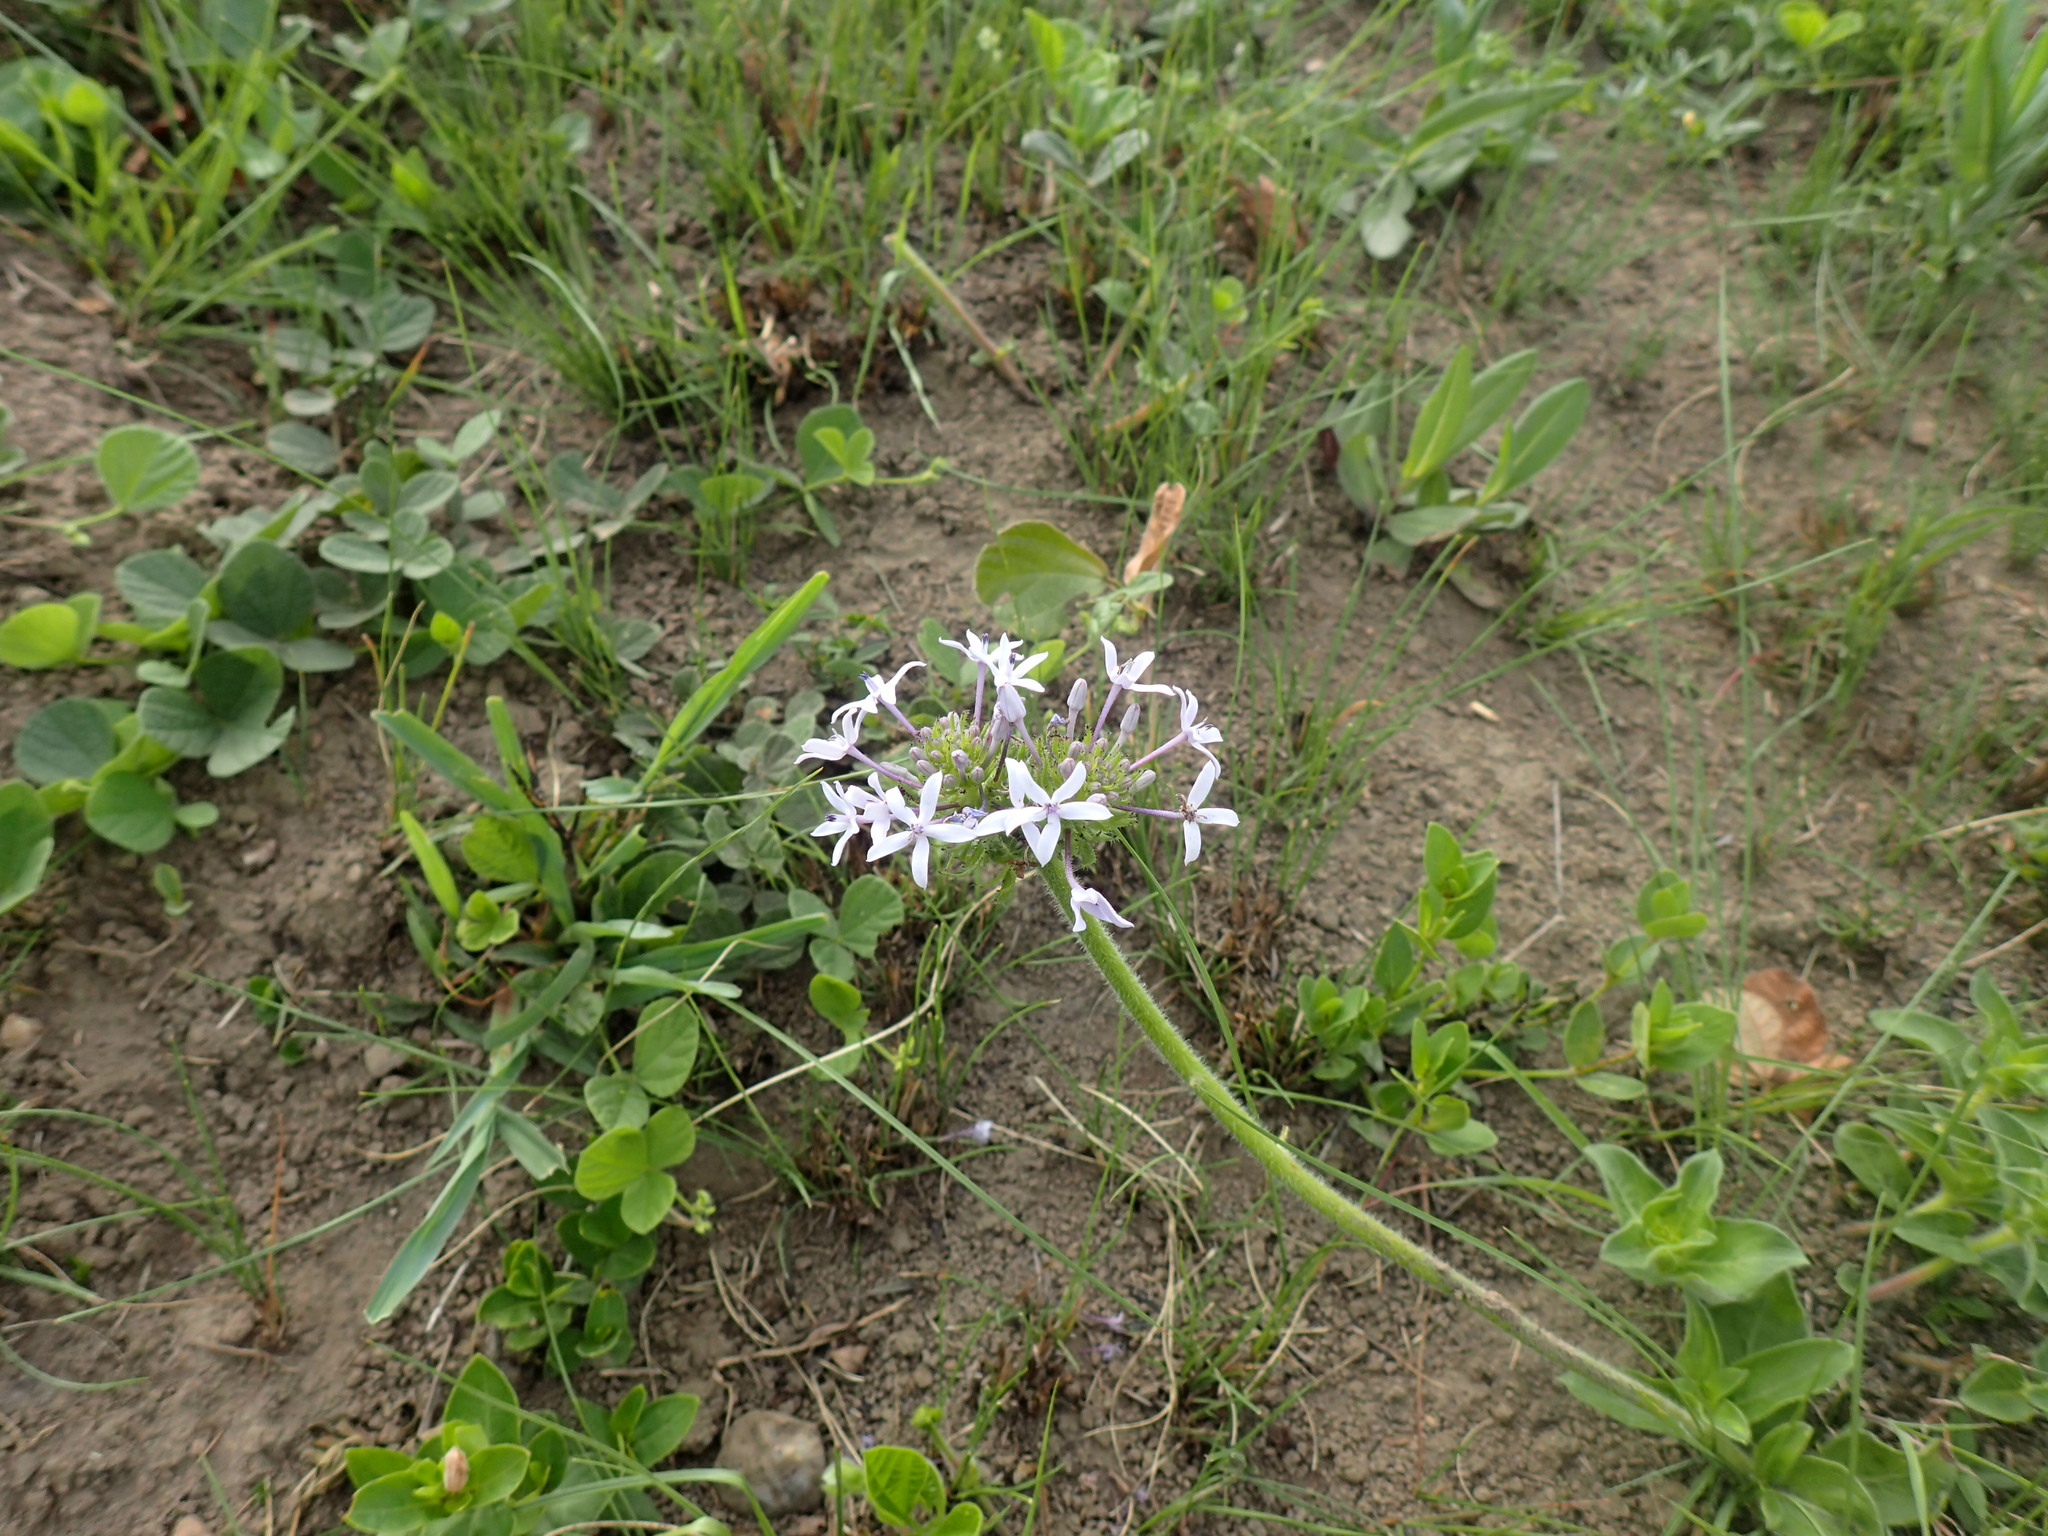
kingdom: Plantae
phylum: Tracheophyta
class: Magnoliopsida
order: Gentianales
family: Rubiaceae
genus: Pentanisia
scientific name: Pentanisia prunelloides
